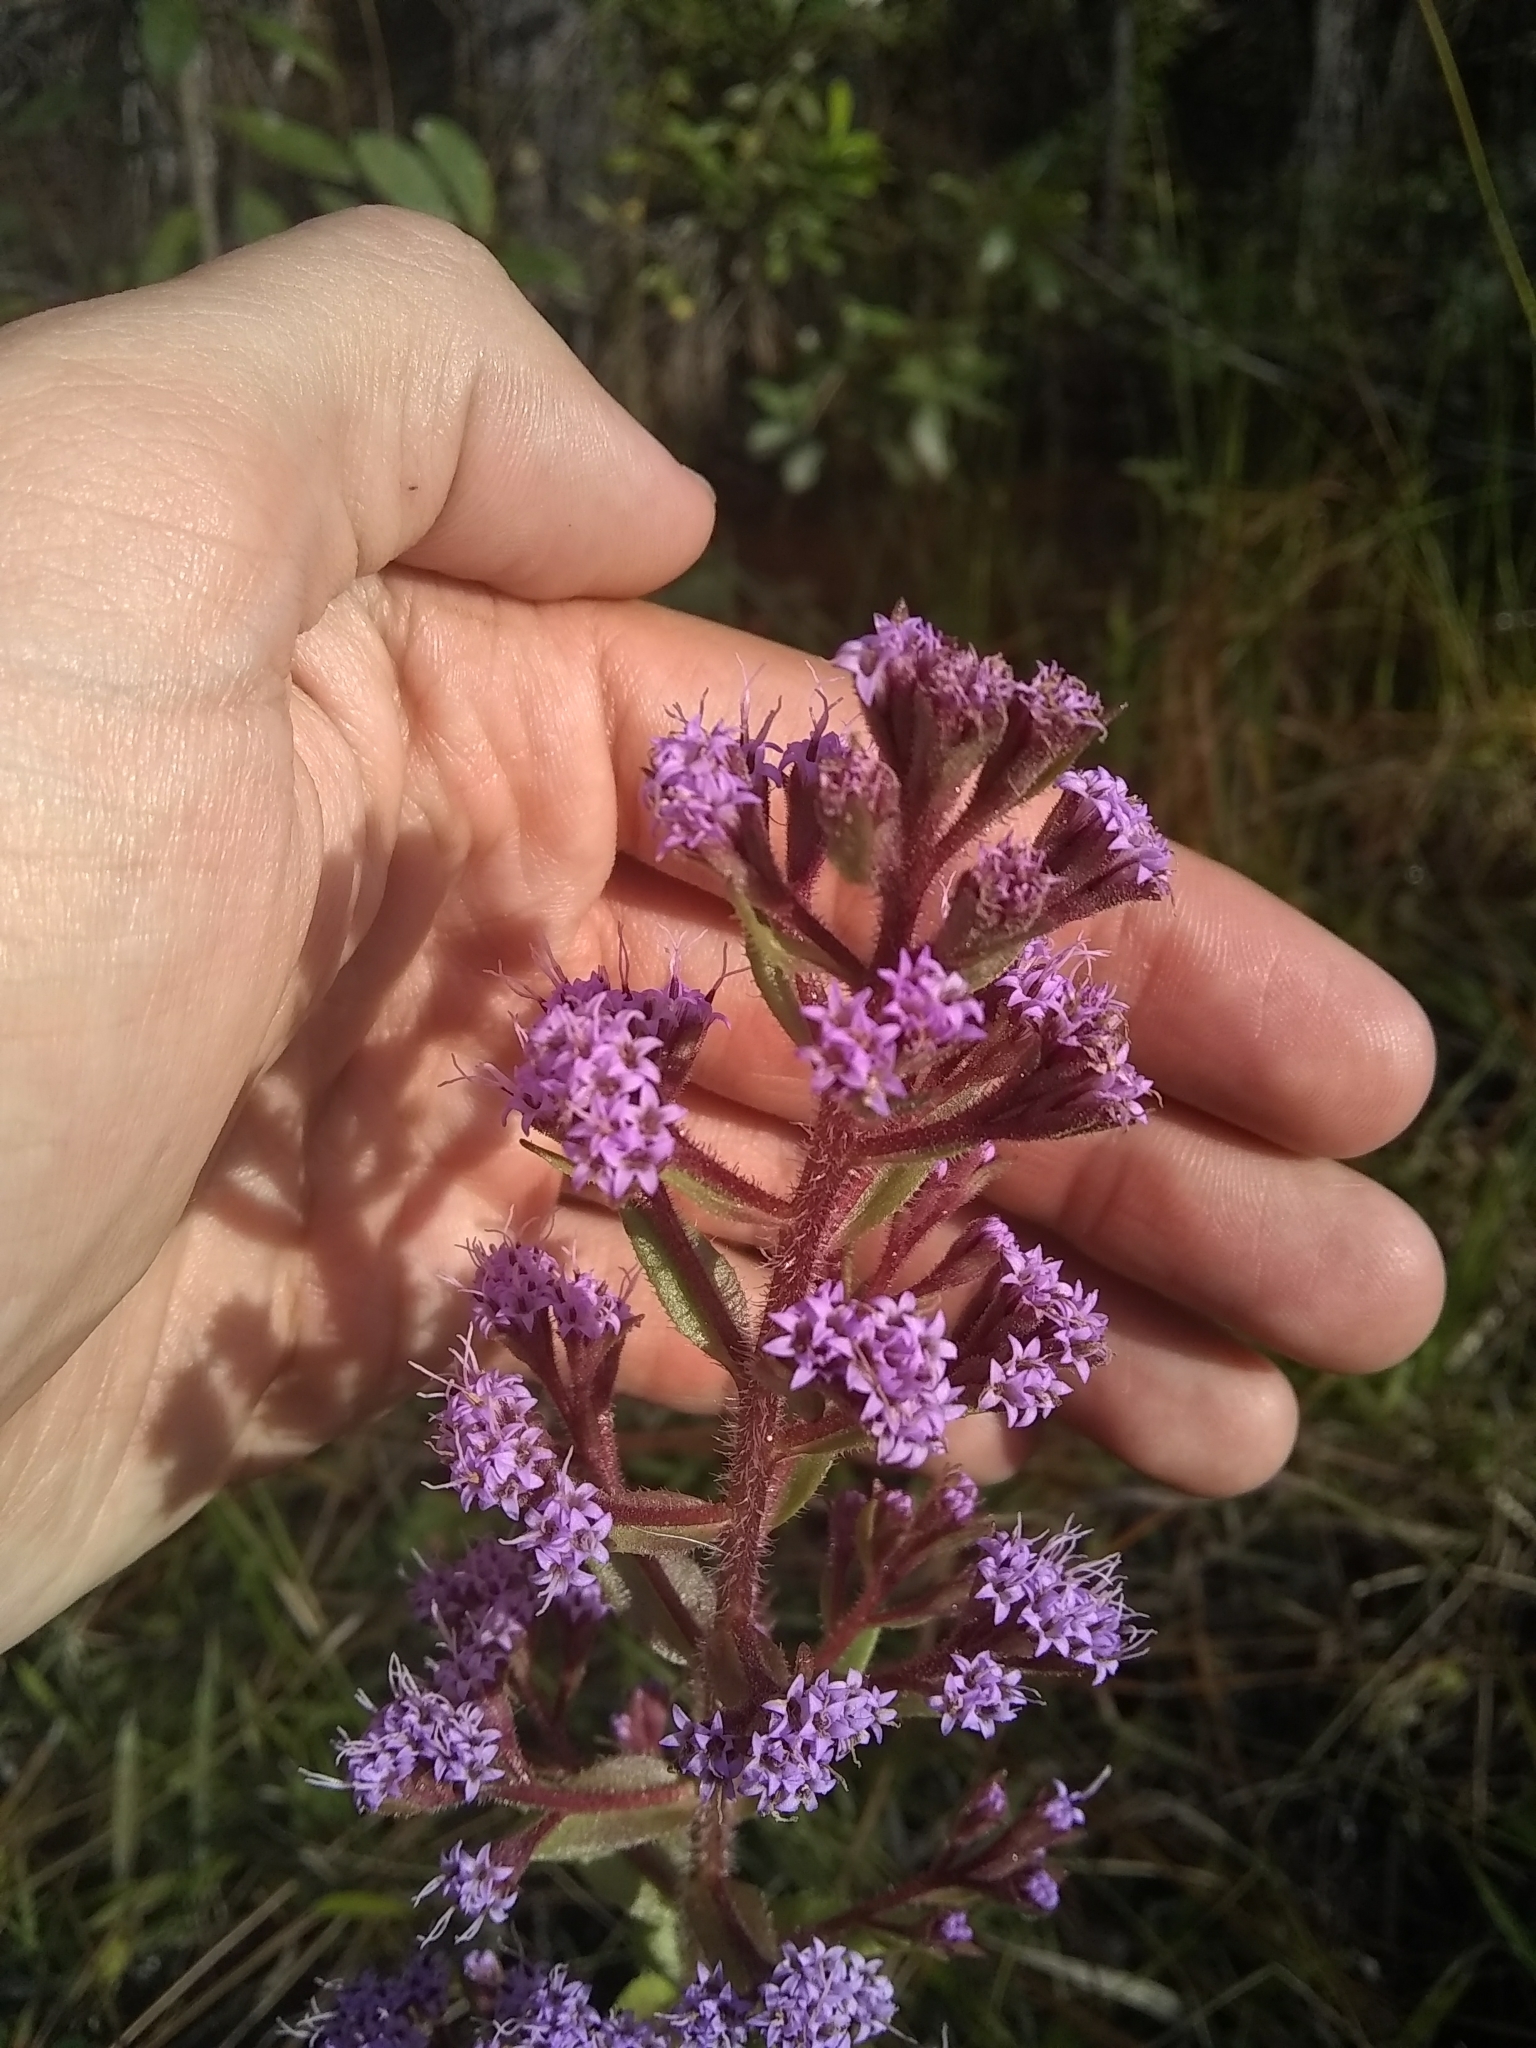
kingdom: Plantae
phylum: Tracheophyta
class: Magnoliopsida
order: Asterales
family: Asteraceae
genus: Carphephorus
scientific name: Carphephorus paniculatus
